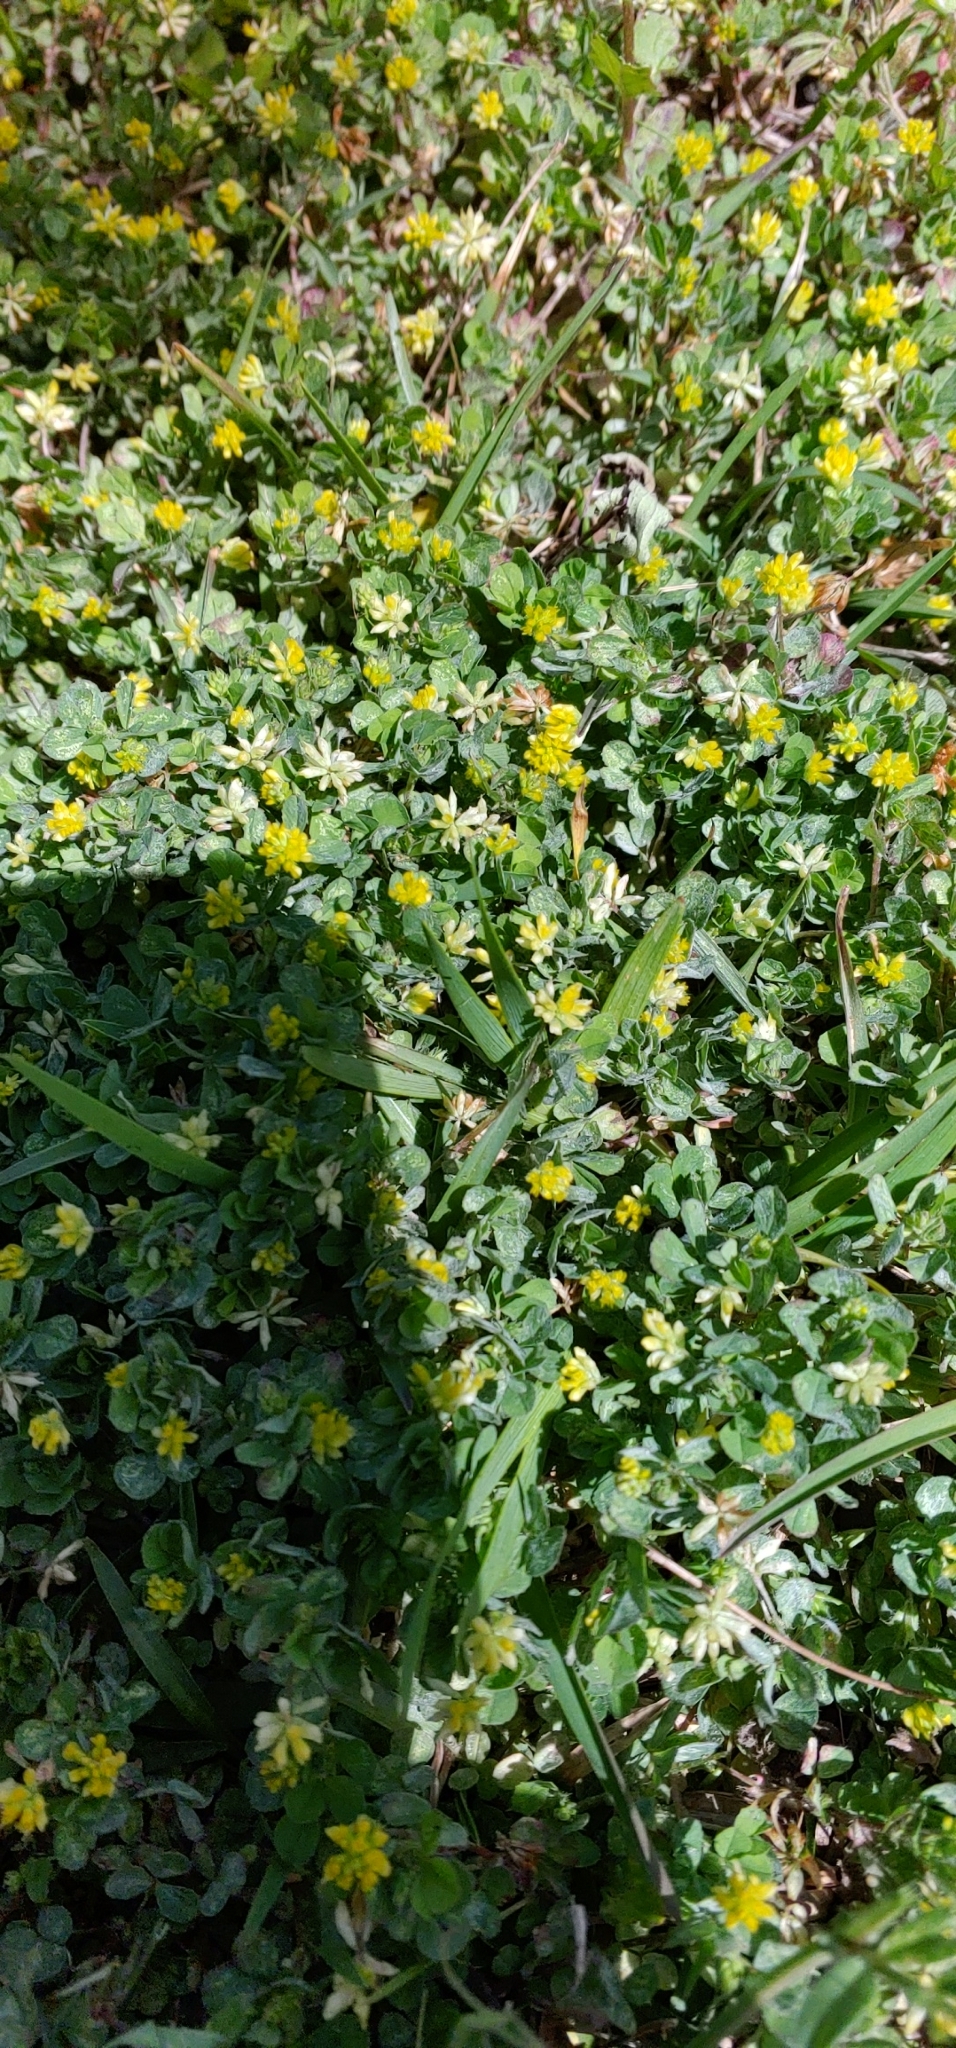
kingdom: Plantae
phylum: Tracheophyta
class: Magnoliopsida
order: Fabales
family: Fabaceae
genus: Trifolium
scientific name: Trifolium dubium
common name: Suckling clover
